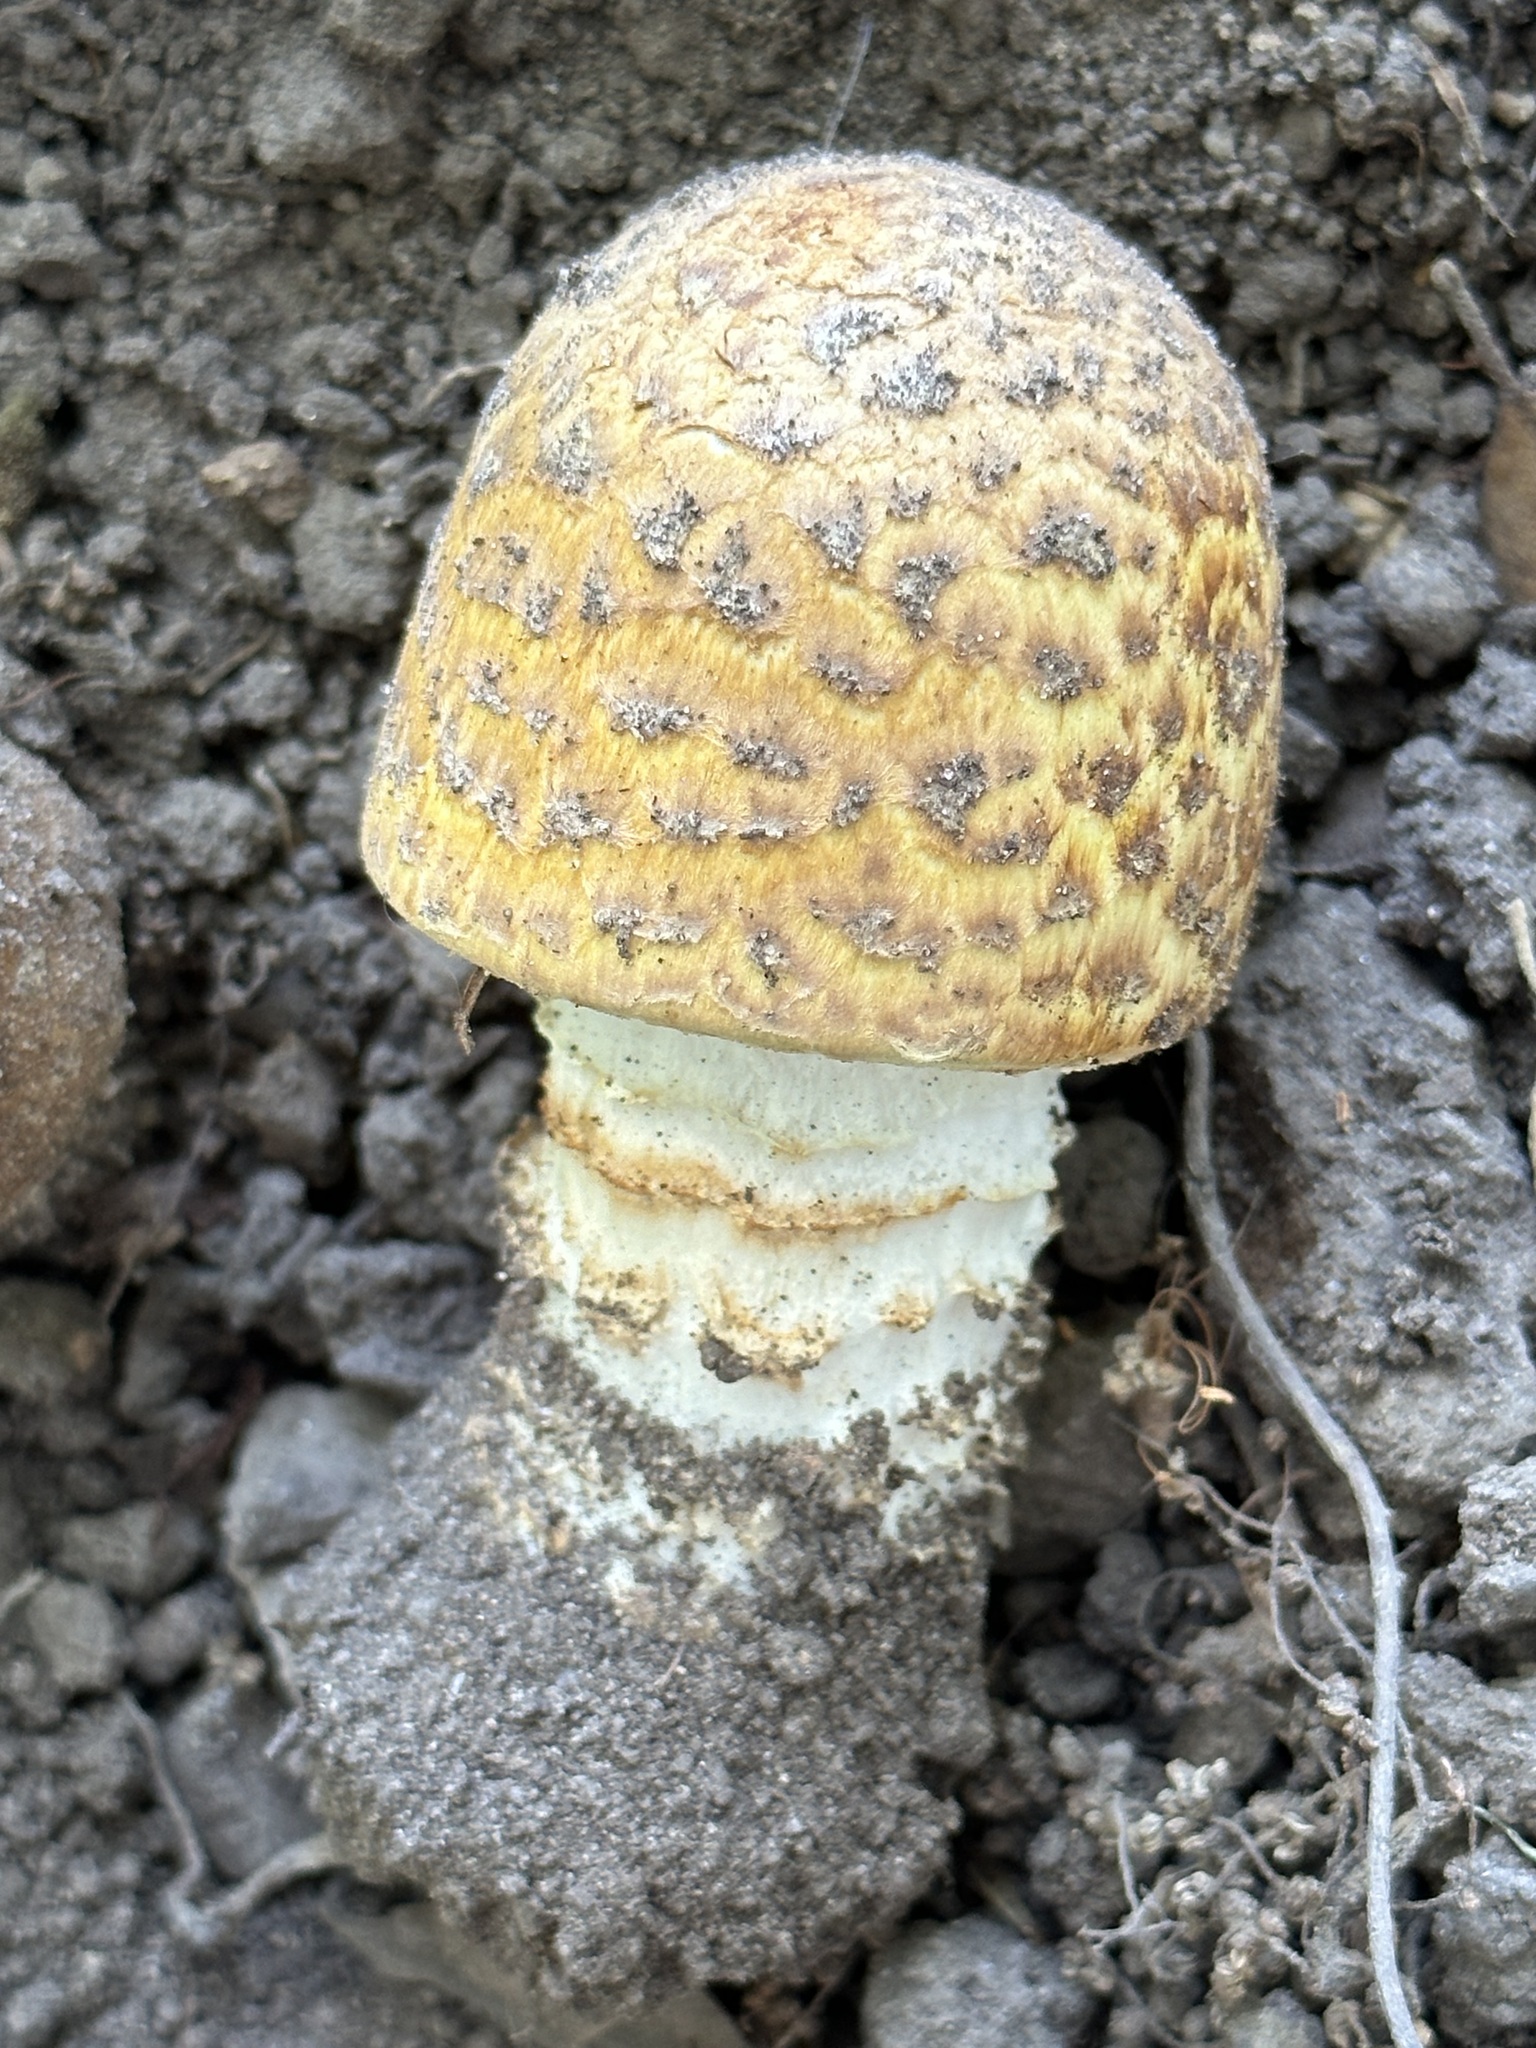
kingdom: Fungi
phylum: Basidiomycota
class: Agaricomycetes
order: Agaricales
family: Agaricaceae
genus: Agaricus
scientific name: Agaricus augustus
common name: Prince
